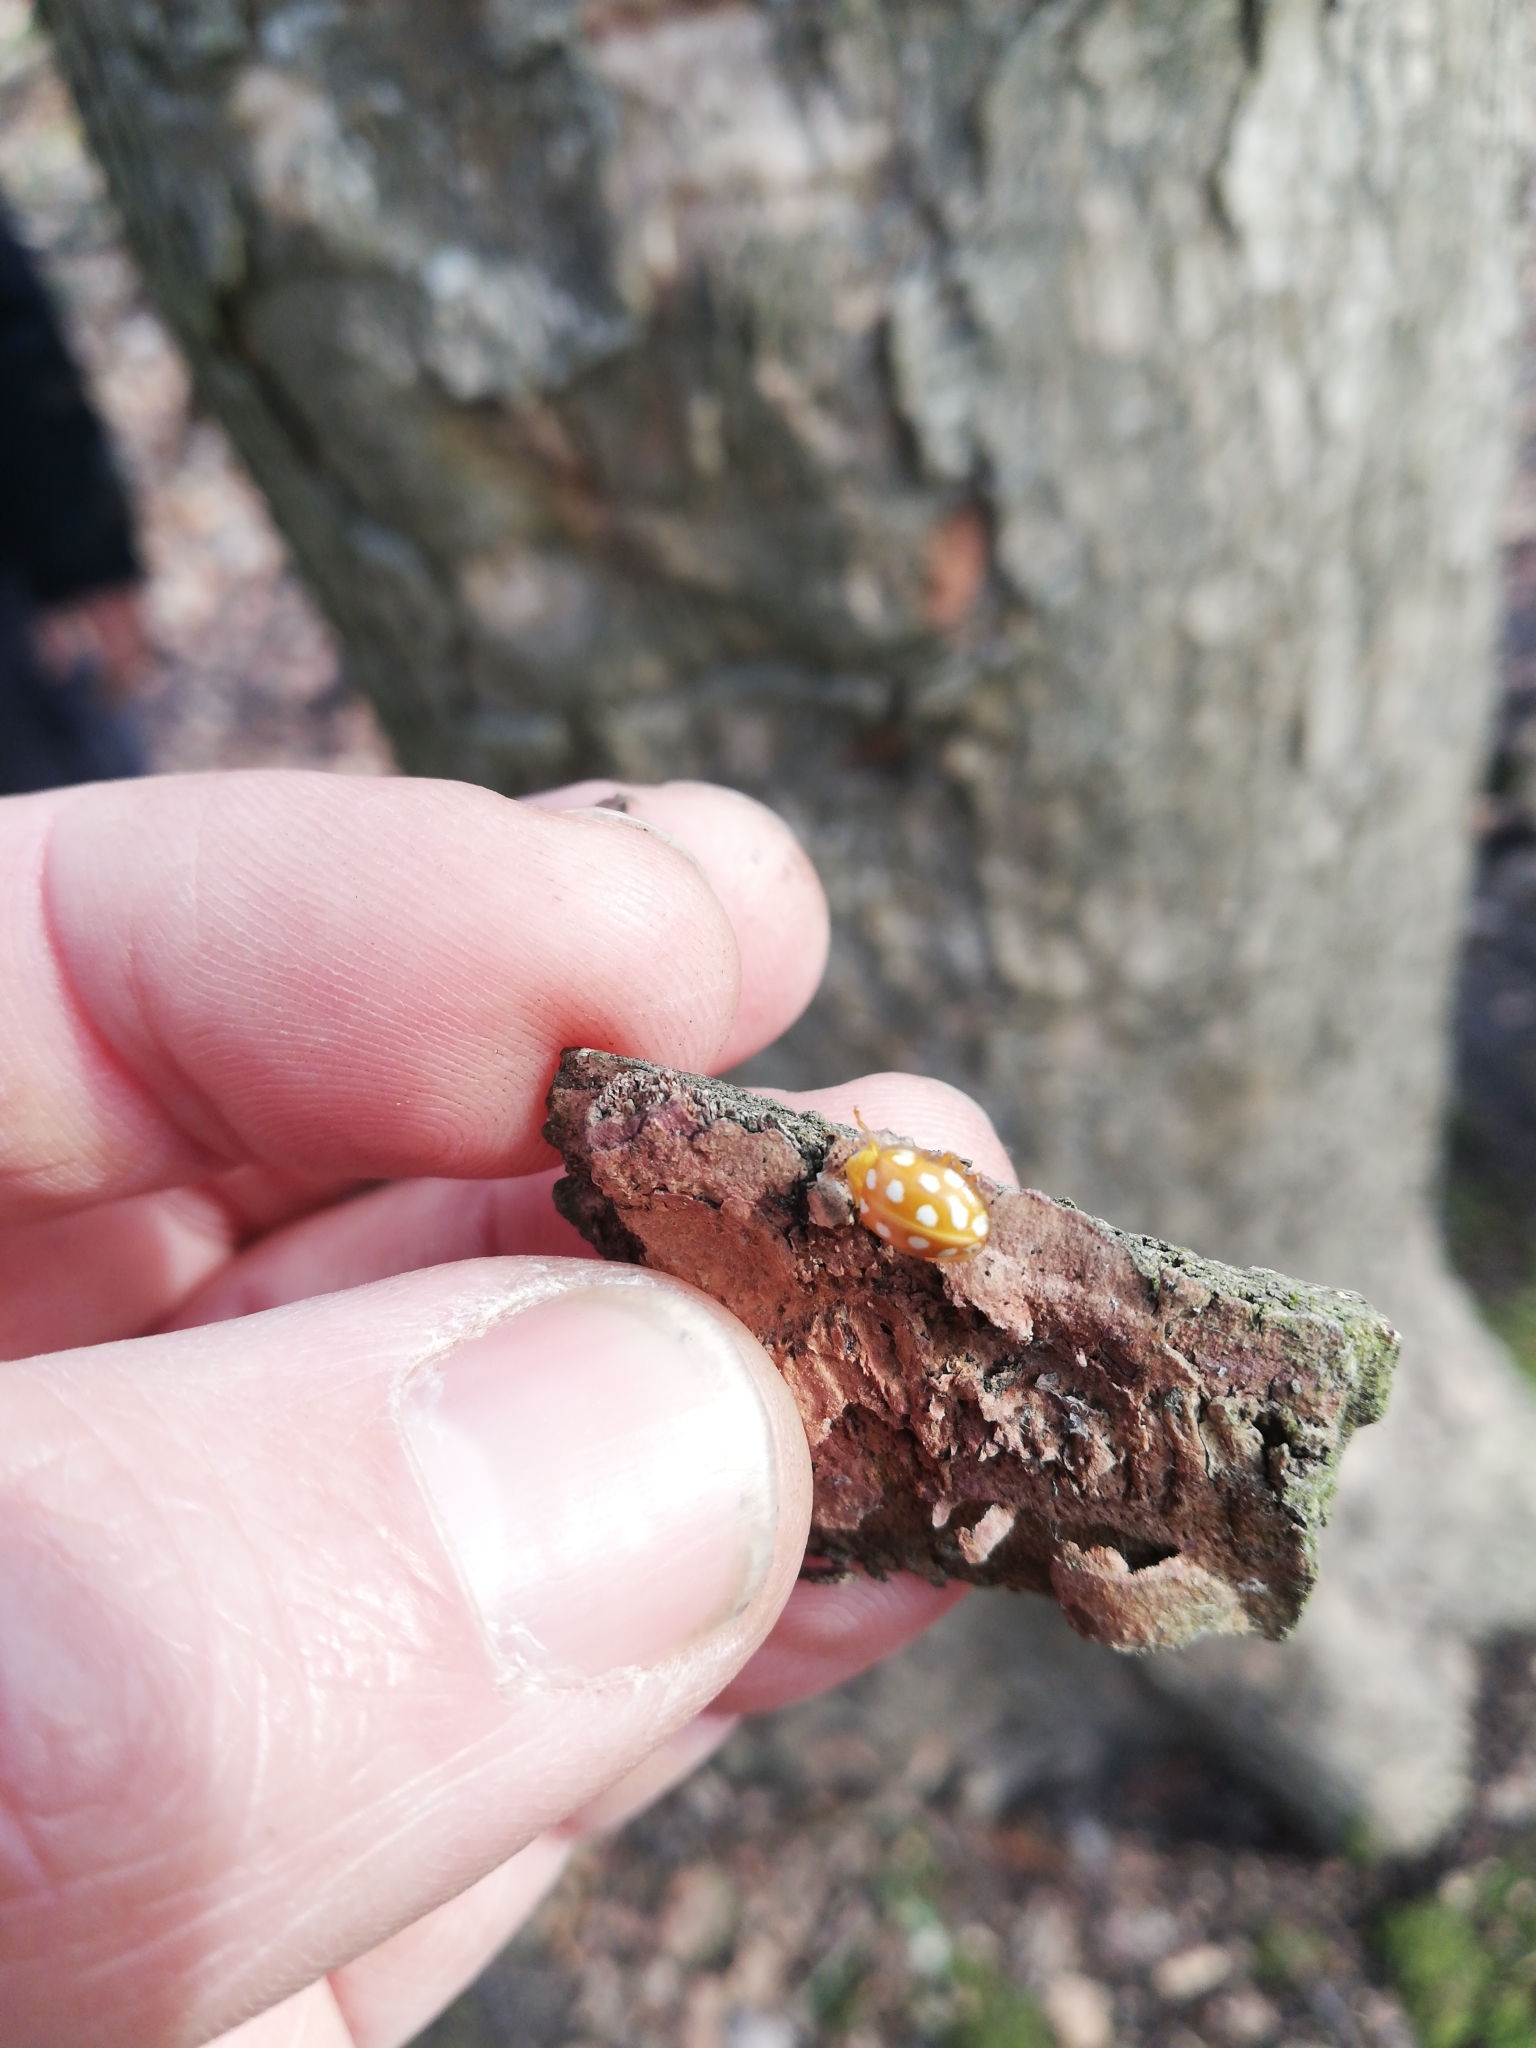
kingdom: Animalia
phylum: Arthropoda
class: Insecta
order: Coleoptera
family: Coccinellidae
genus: Halyzia
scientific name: Halyzia sedecimguttata
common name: Orange ladybird
